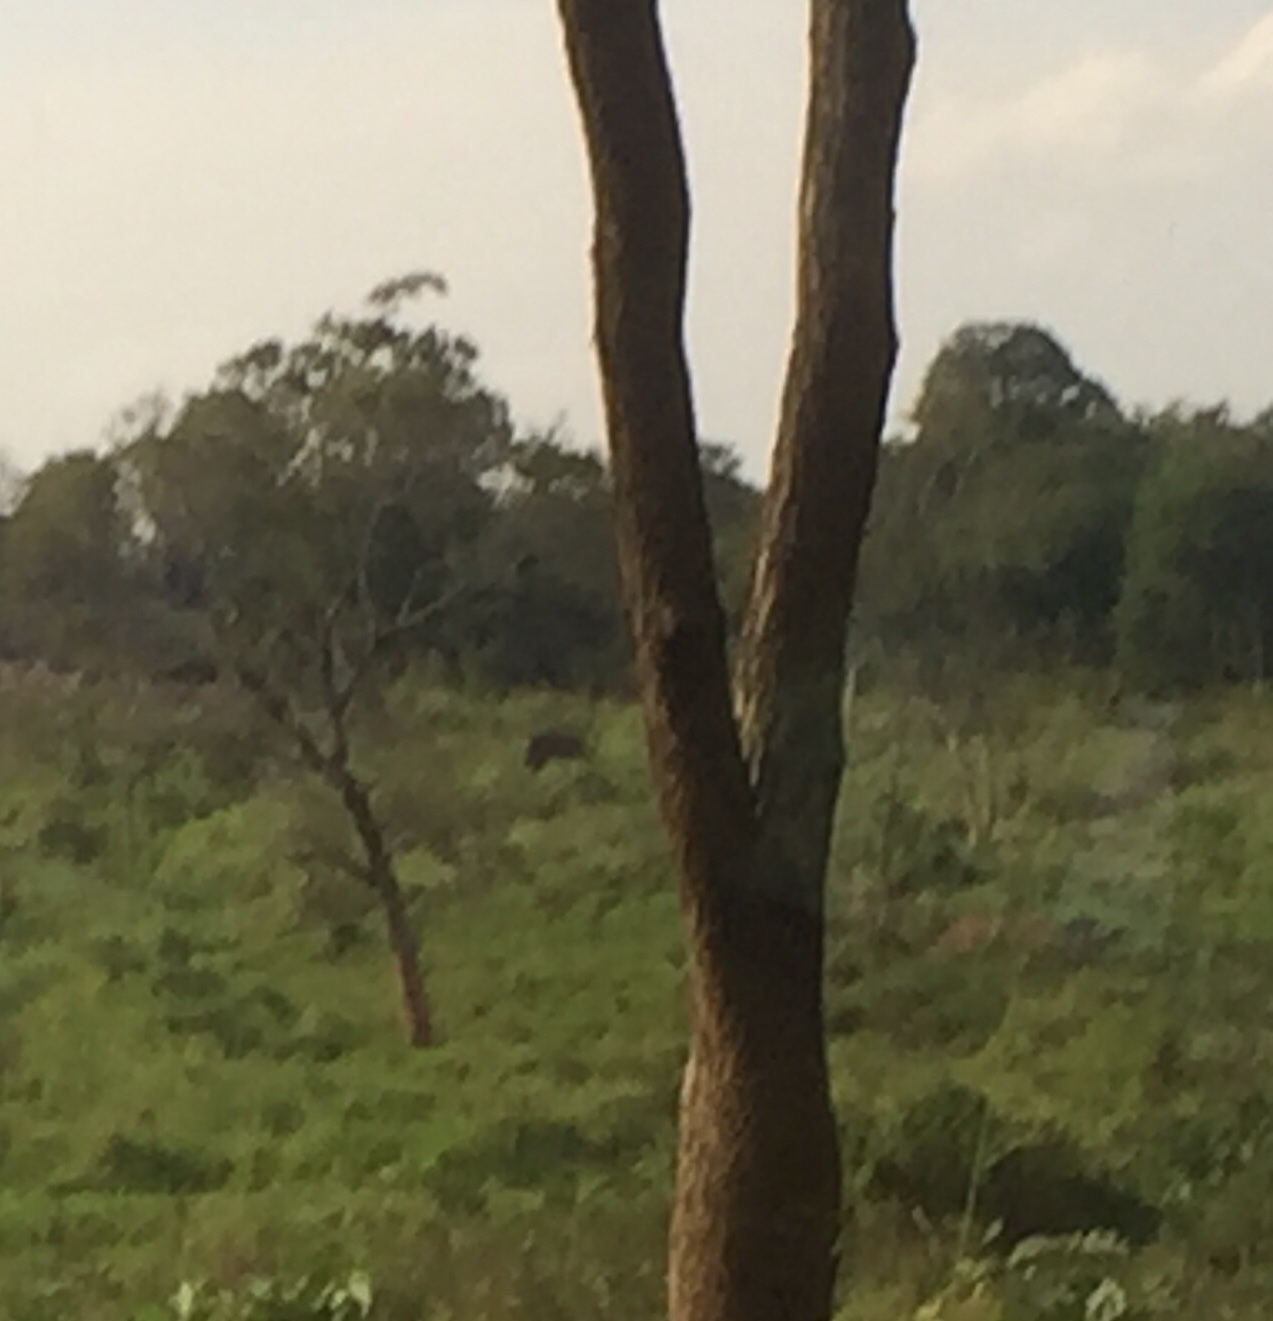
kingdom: Animalia
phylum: Chordata
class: Mammalia
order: Proboscidea
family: Elephantidae
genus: Elephas
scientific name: Elephas maximus
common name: Asian elephant
